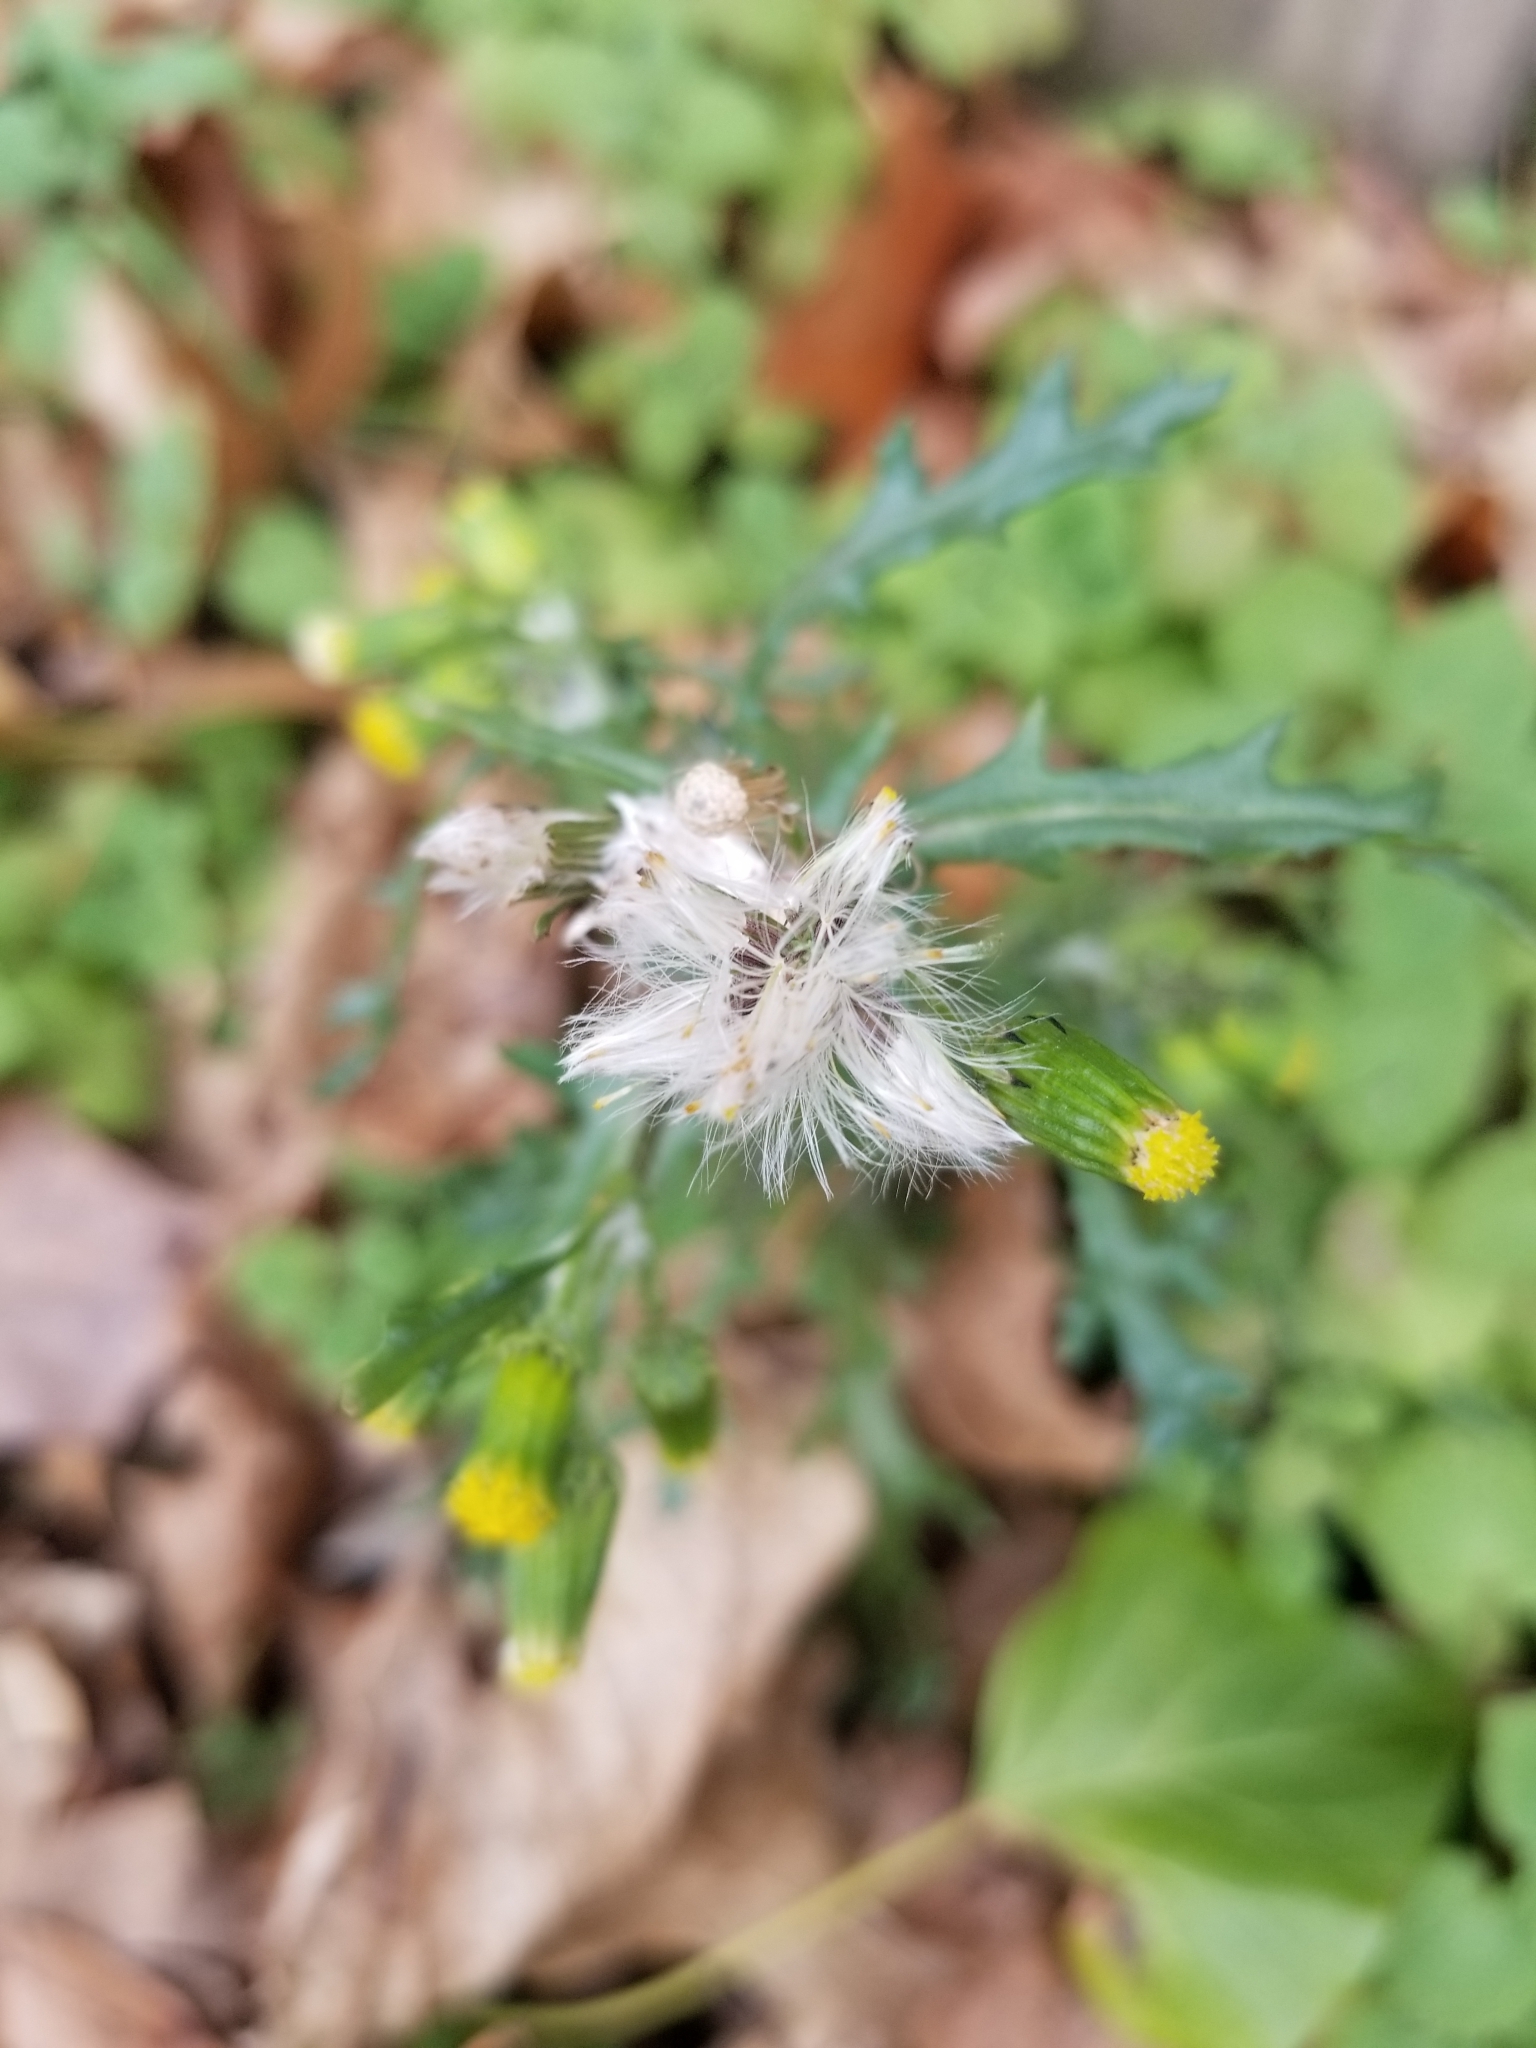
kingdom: Plantae
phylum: Tracheophyta
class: Magnoliopsida
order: Asterales
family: Asteraceae
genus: Senecio
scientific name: Senecio vulgaris
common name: Old-man-in-the-spring
